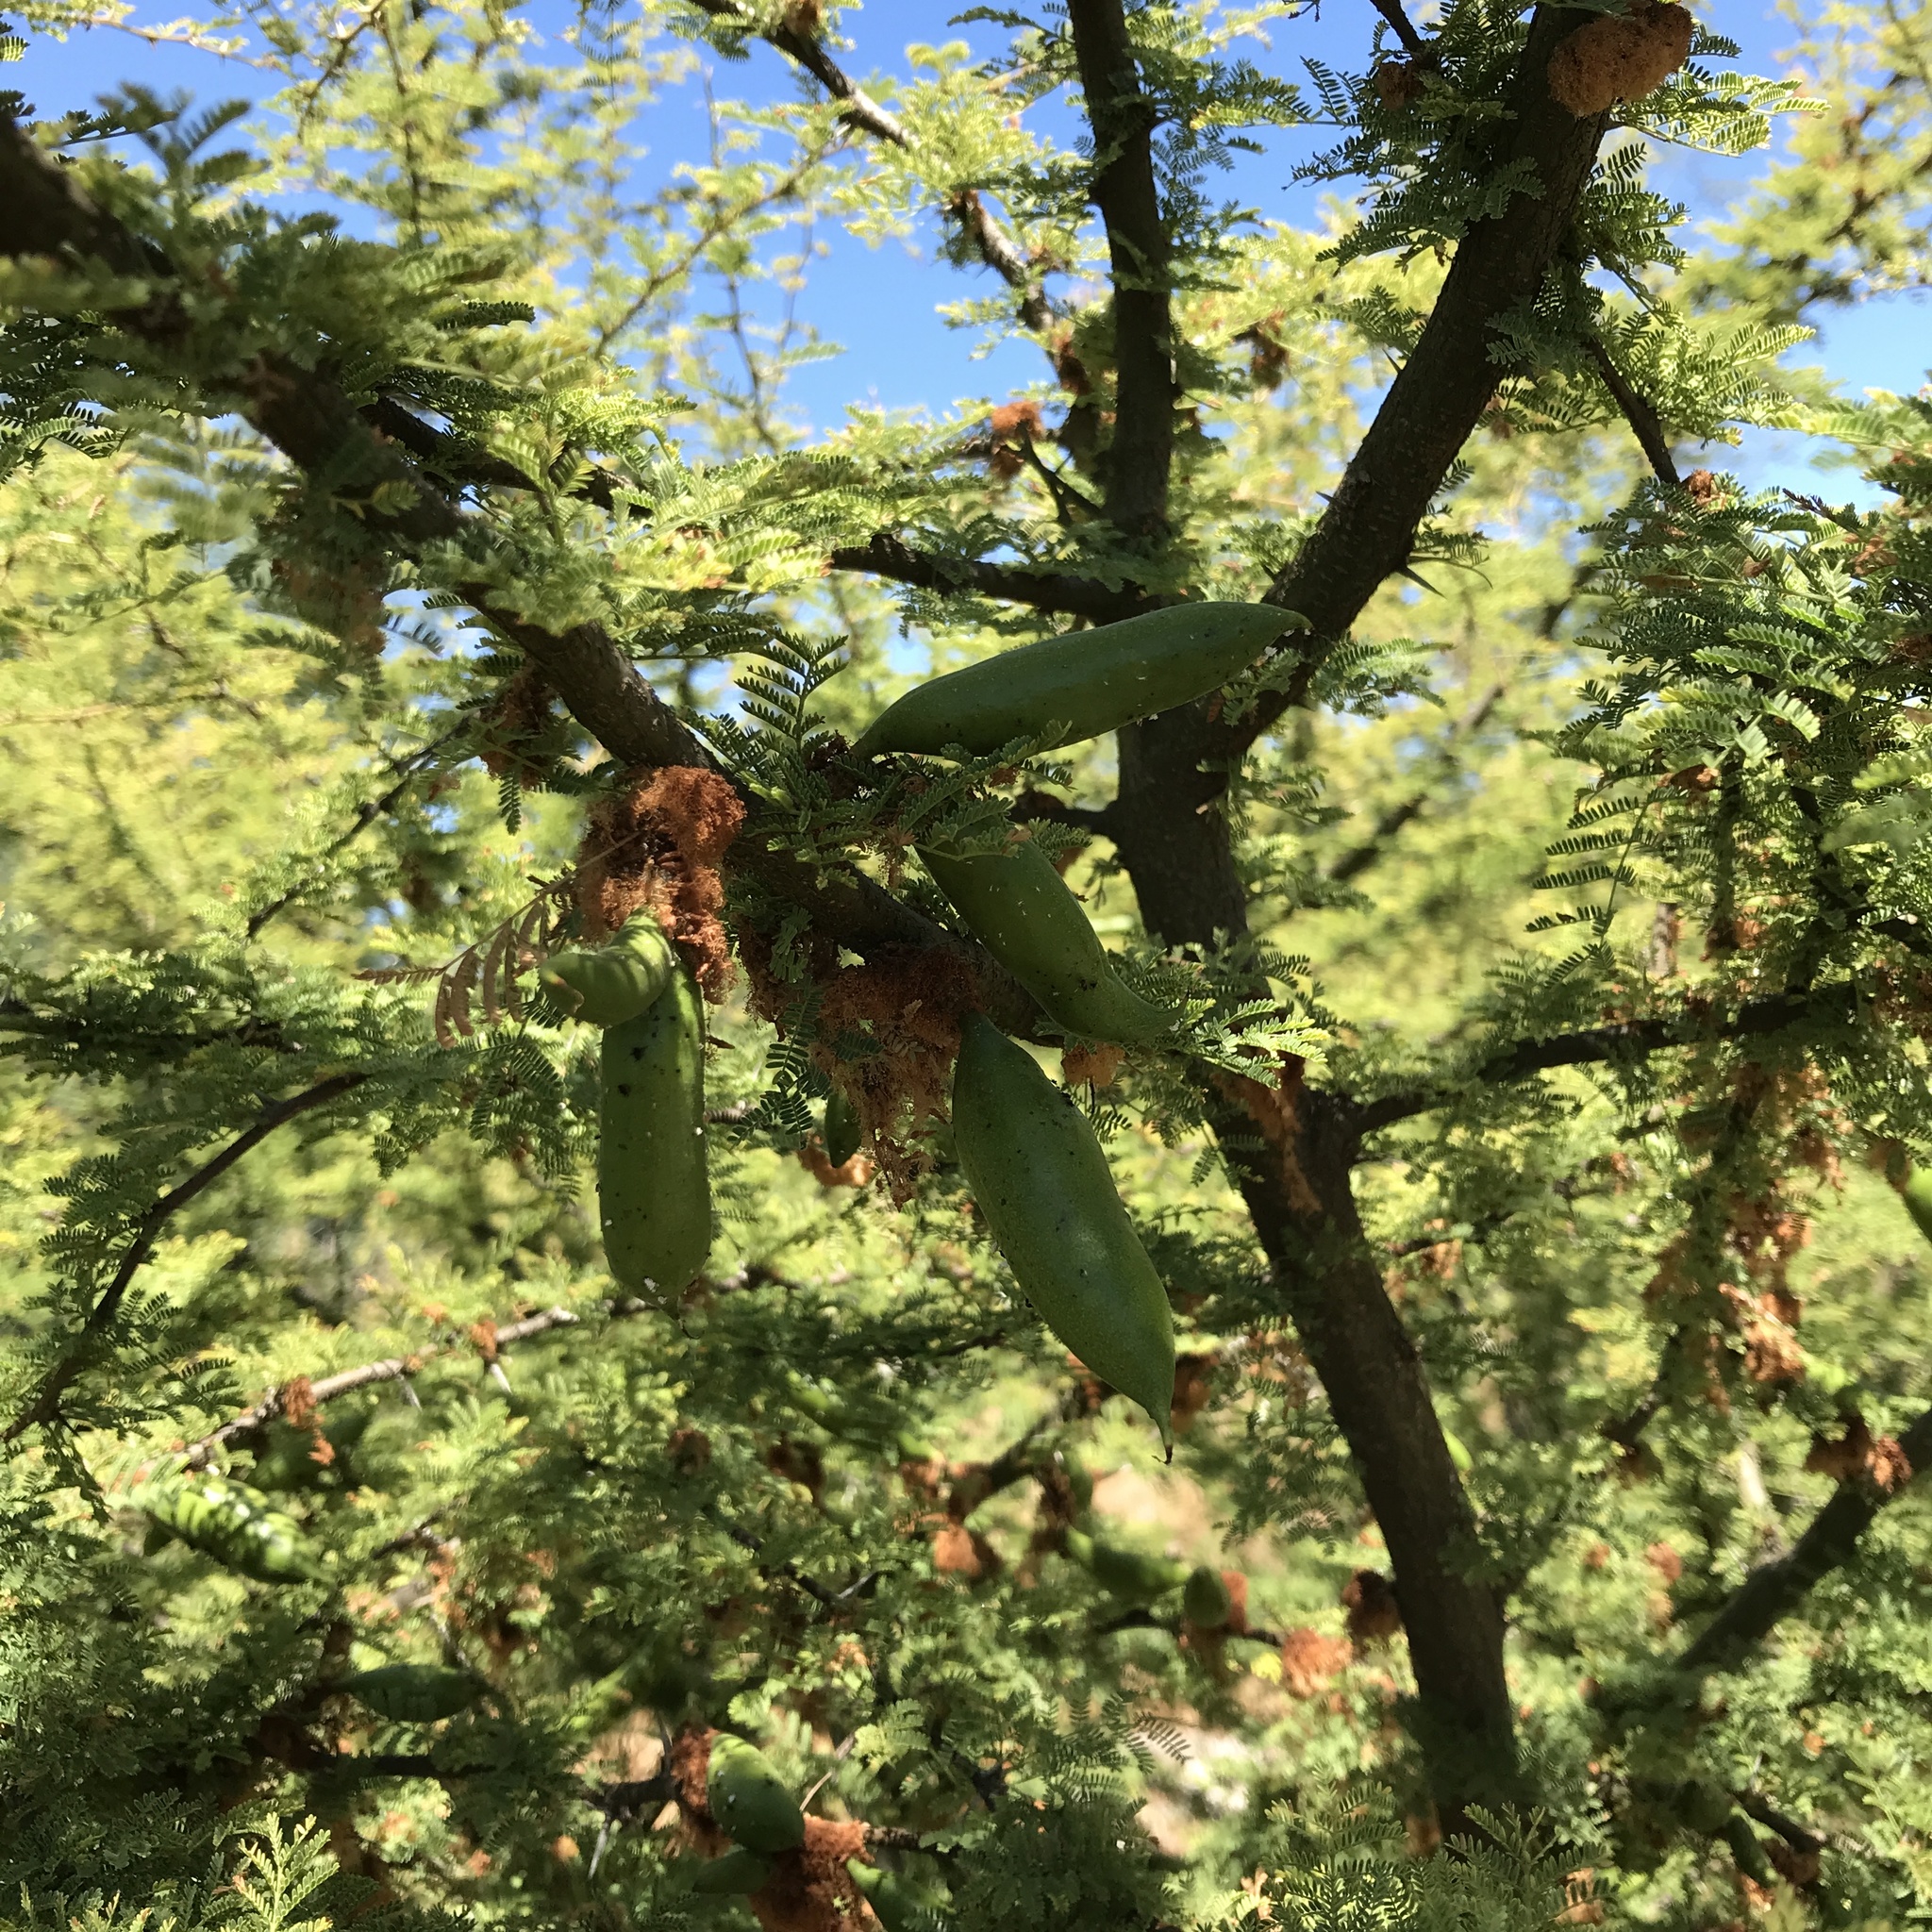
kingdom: Plantae
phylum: Tracheophyta
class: Magnoliopsida
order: Fabales
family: Fabaceae
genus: Vachellia
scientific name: Vachellia caven
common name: Roman cassie
